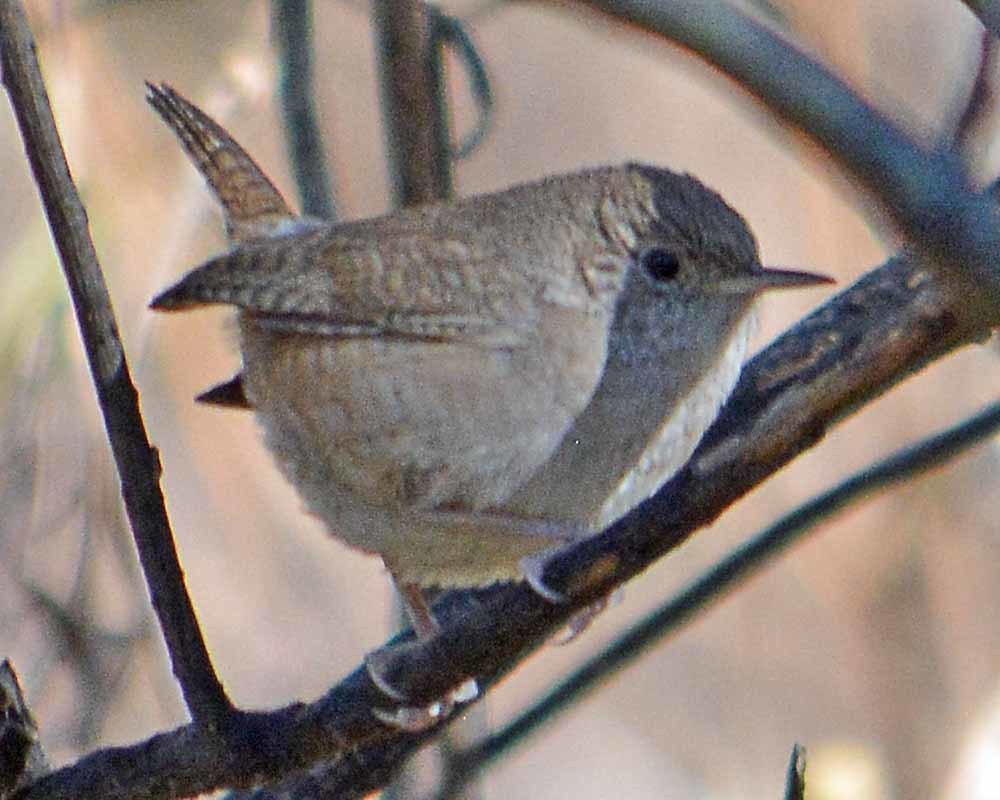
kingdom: Animalia
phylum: Chordata
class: Aves
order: Passeriformes
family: Troglodytidae
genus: Troglodytes
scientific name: Troglodytes aedon
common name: House wren
